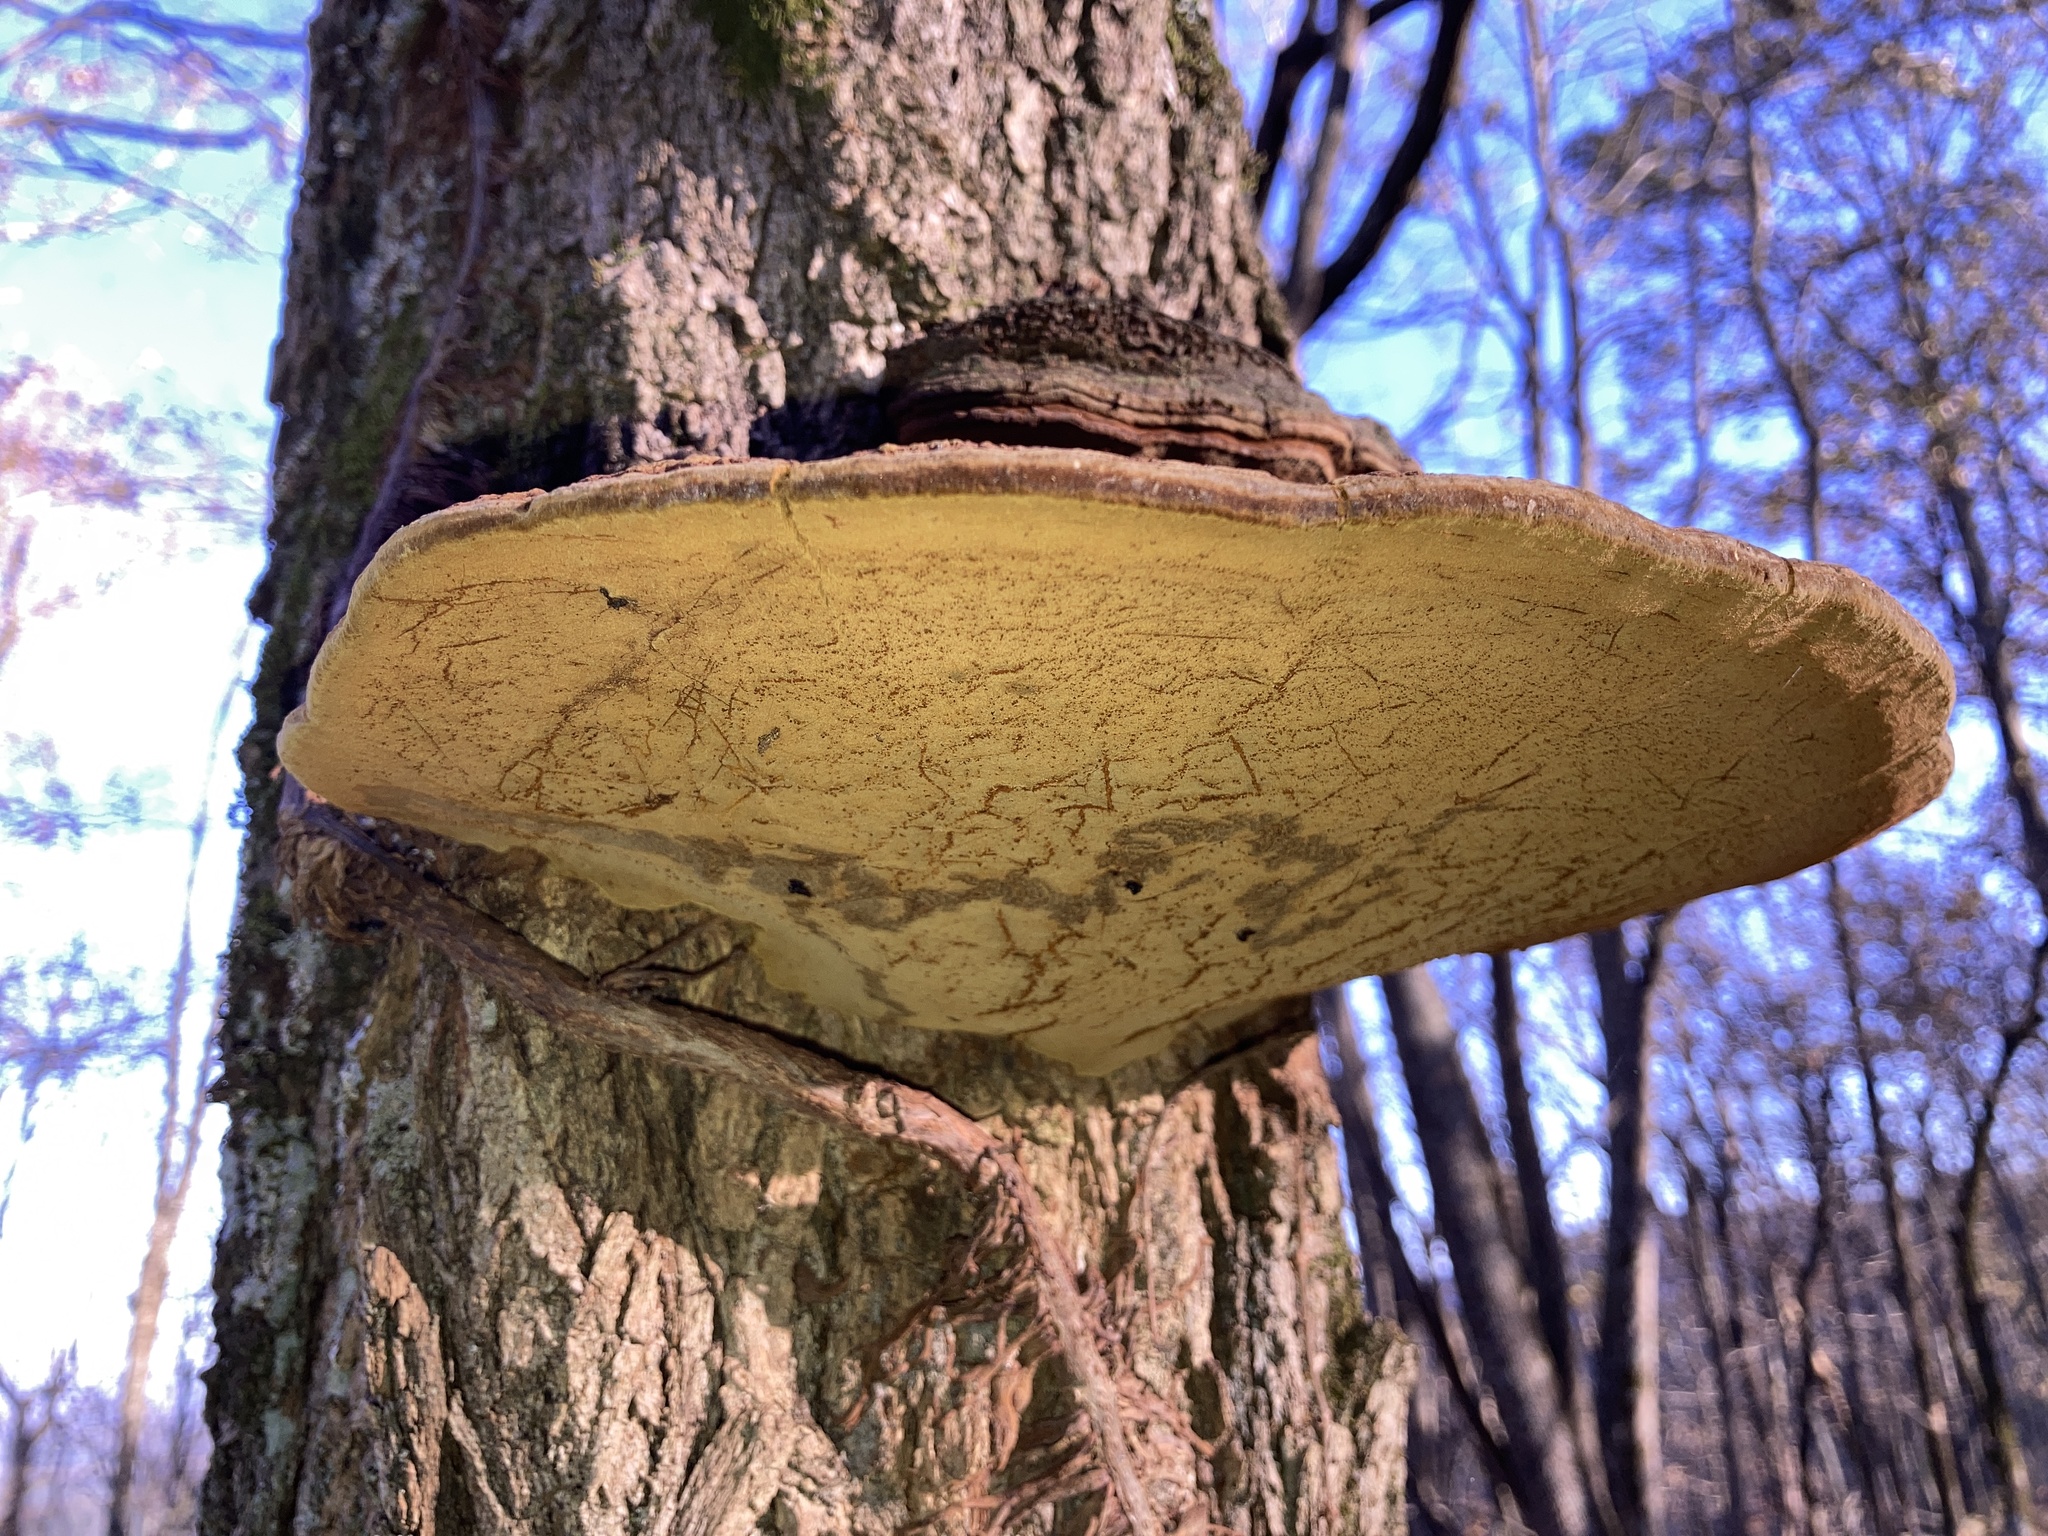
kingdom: Fungi
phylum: Basidiomycota
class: Agaricomycetes
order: Hymenochaetales
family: Hymenochaetaceae
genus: Phellinus
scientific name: Phellinus robiniae
